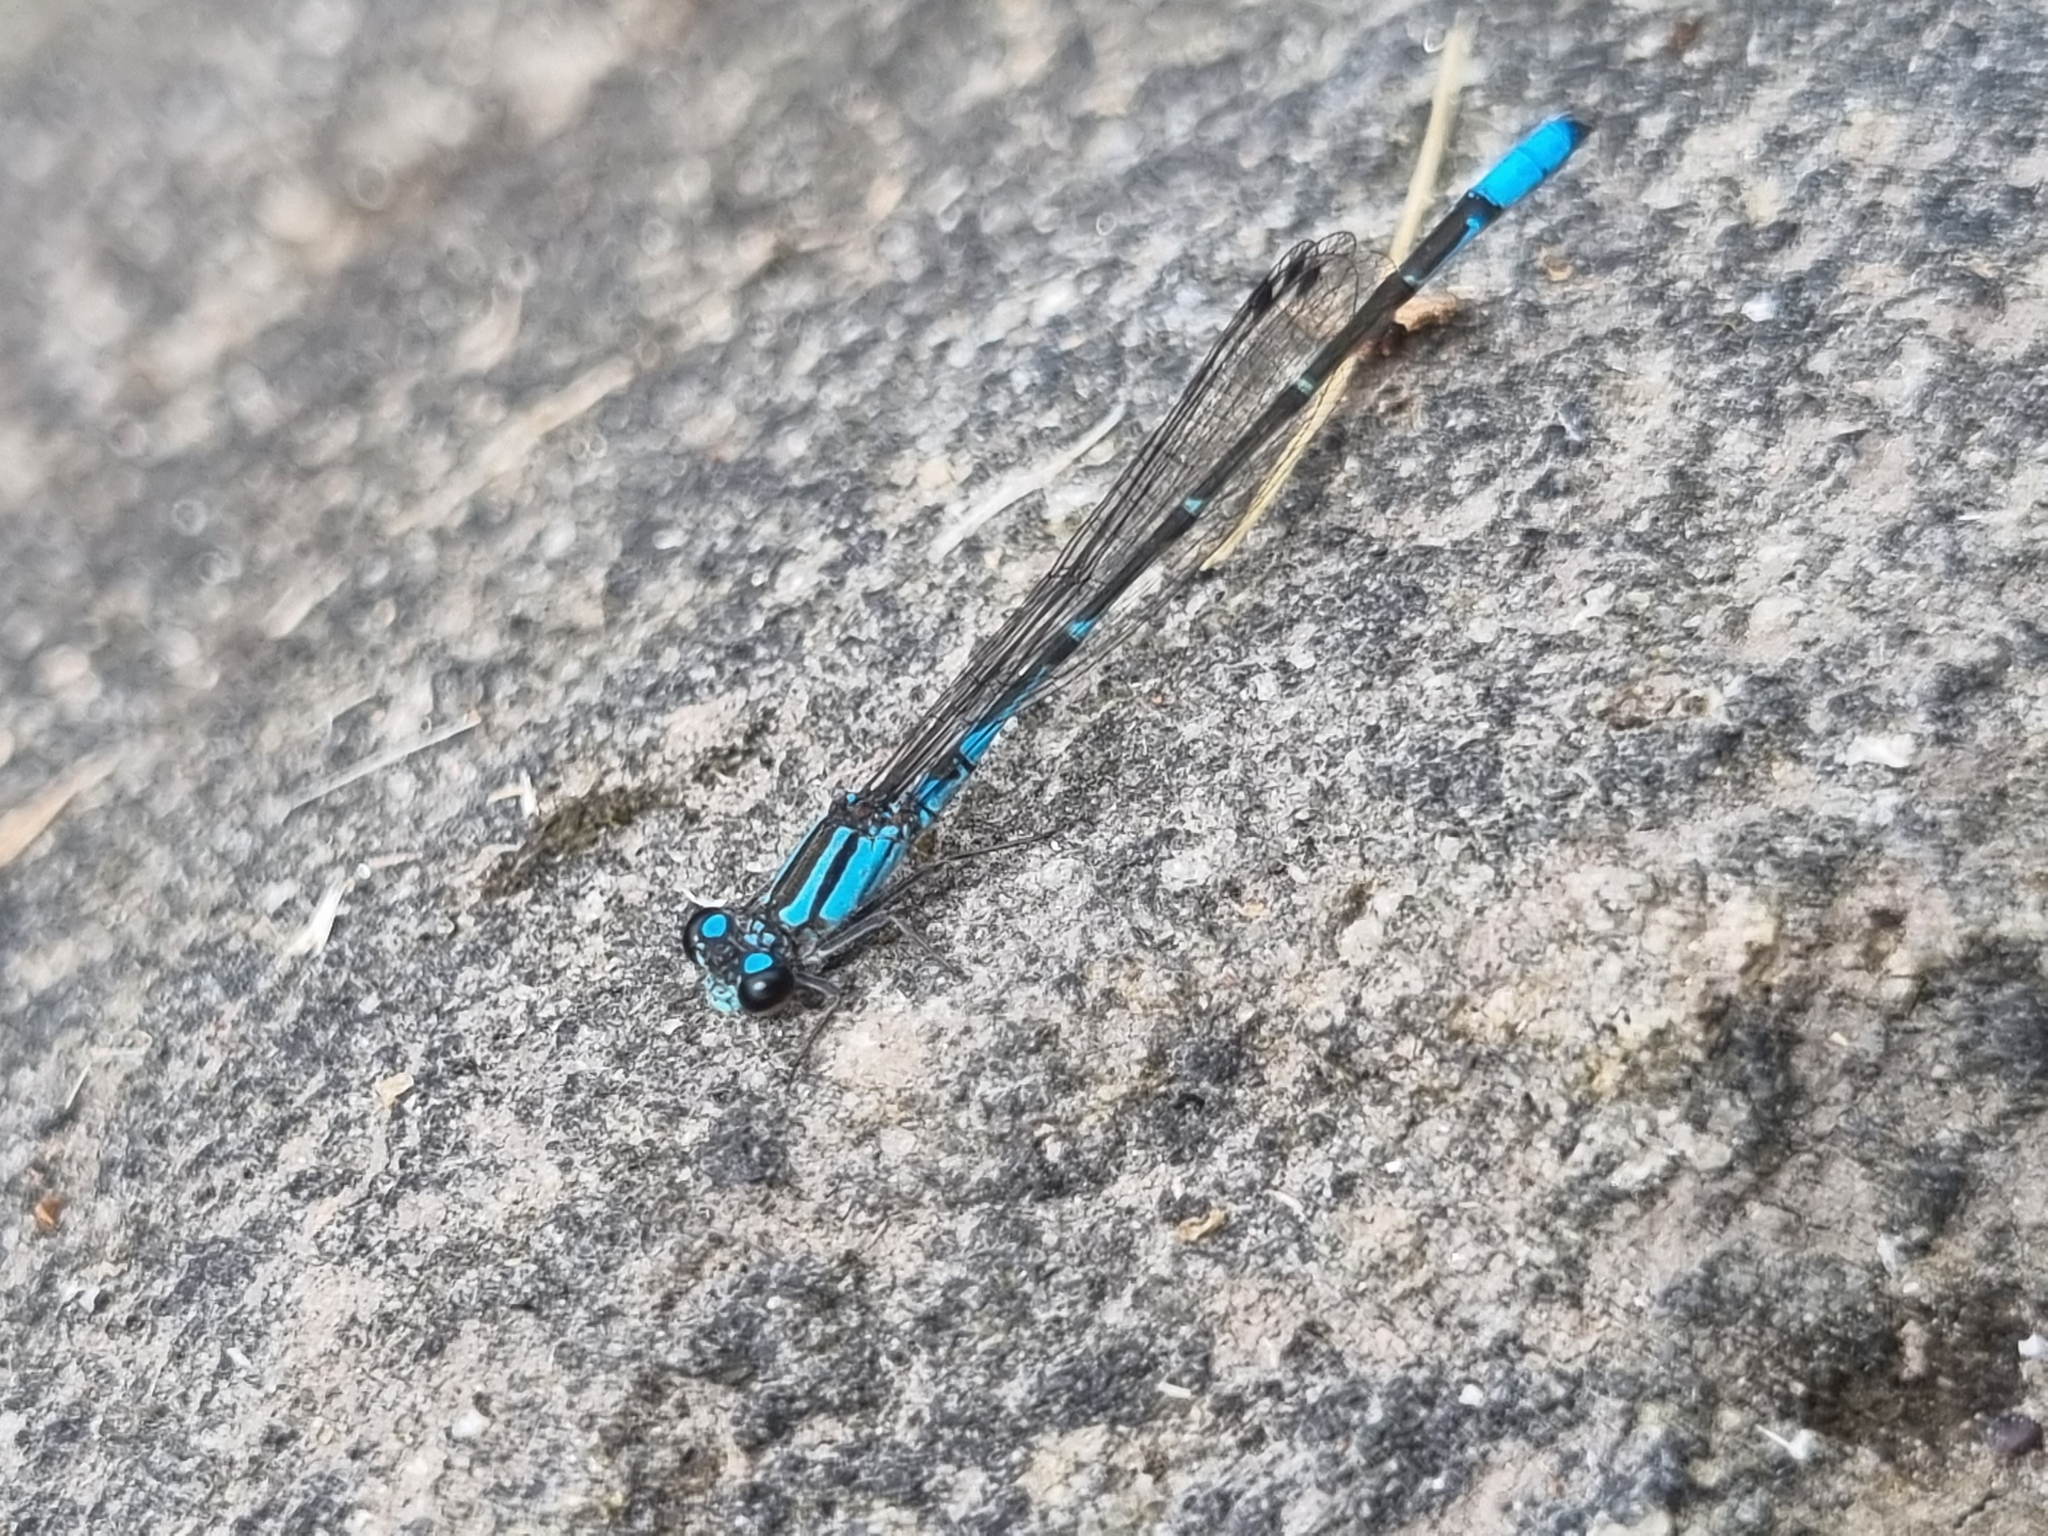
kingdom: Animalia
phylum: Arthropoda
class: Insecta
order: Odonata
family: Coenagrionidae
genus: Acanthagrion
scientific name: Acanthagrion lancea
